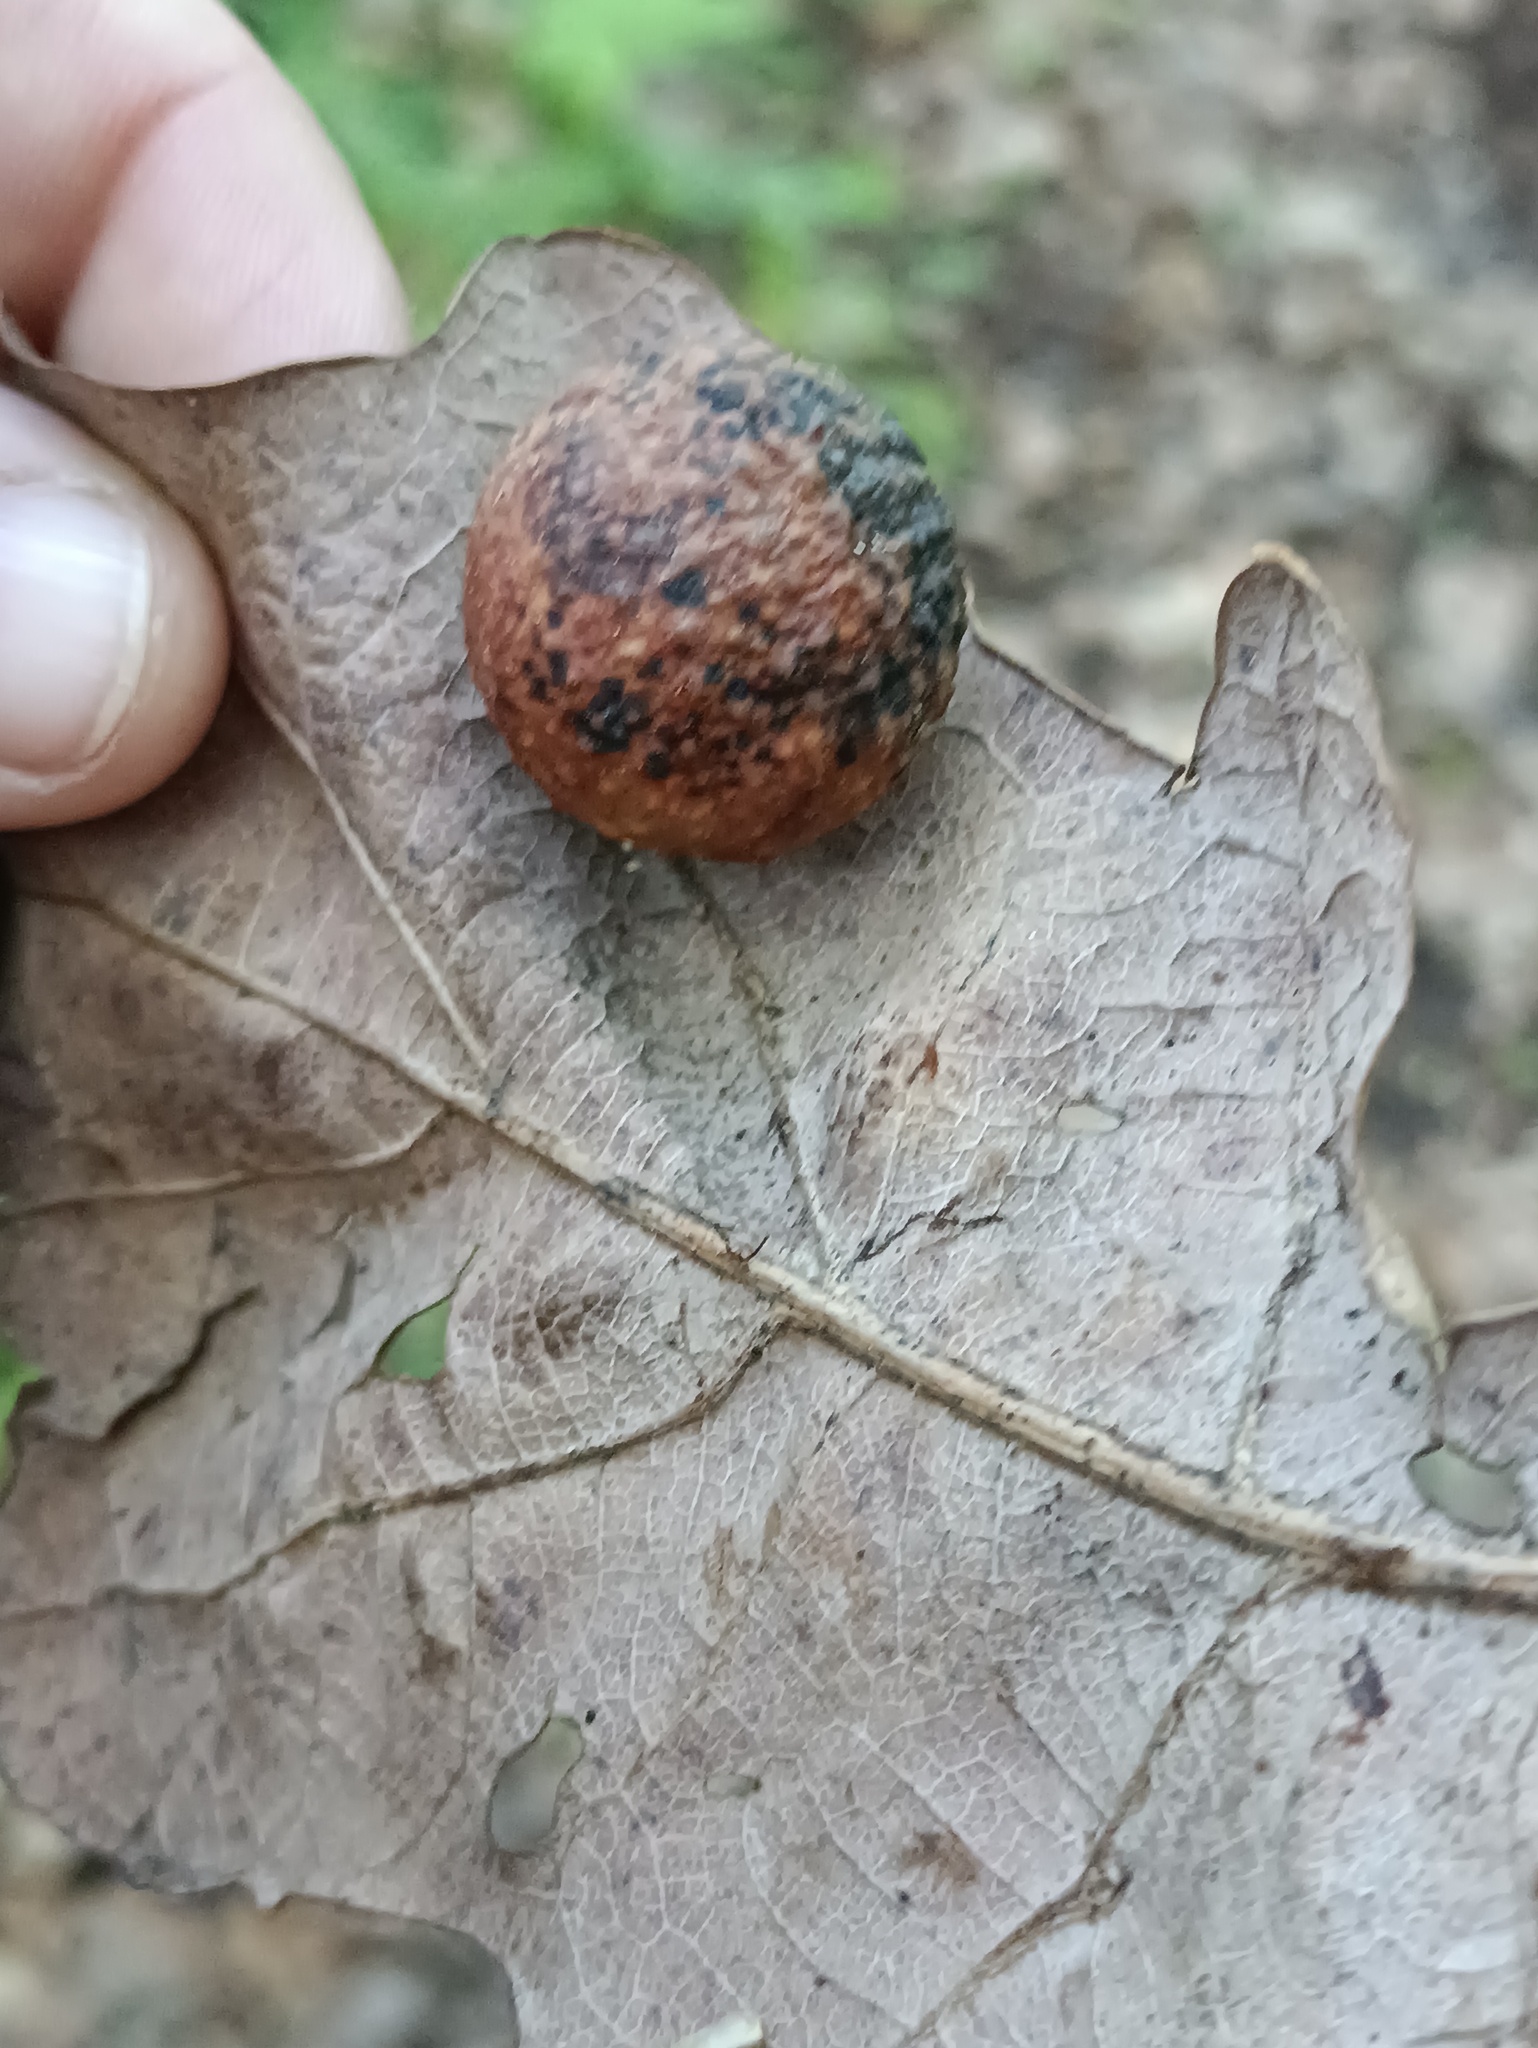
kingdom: Animalia
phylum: Arthropoda
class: Insecta
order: Hymenoptera
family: Cynipidae
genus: Cynips
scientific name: Cynips quercusfolii
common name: Cherry gall
